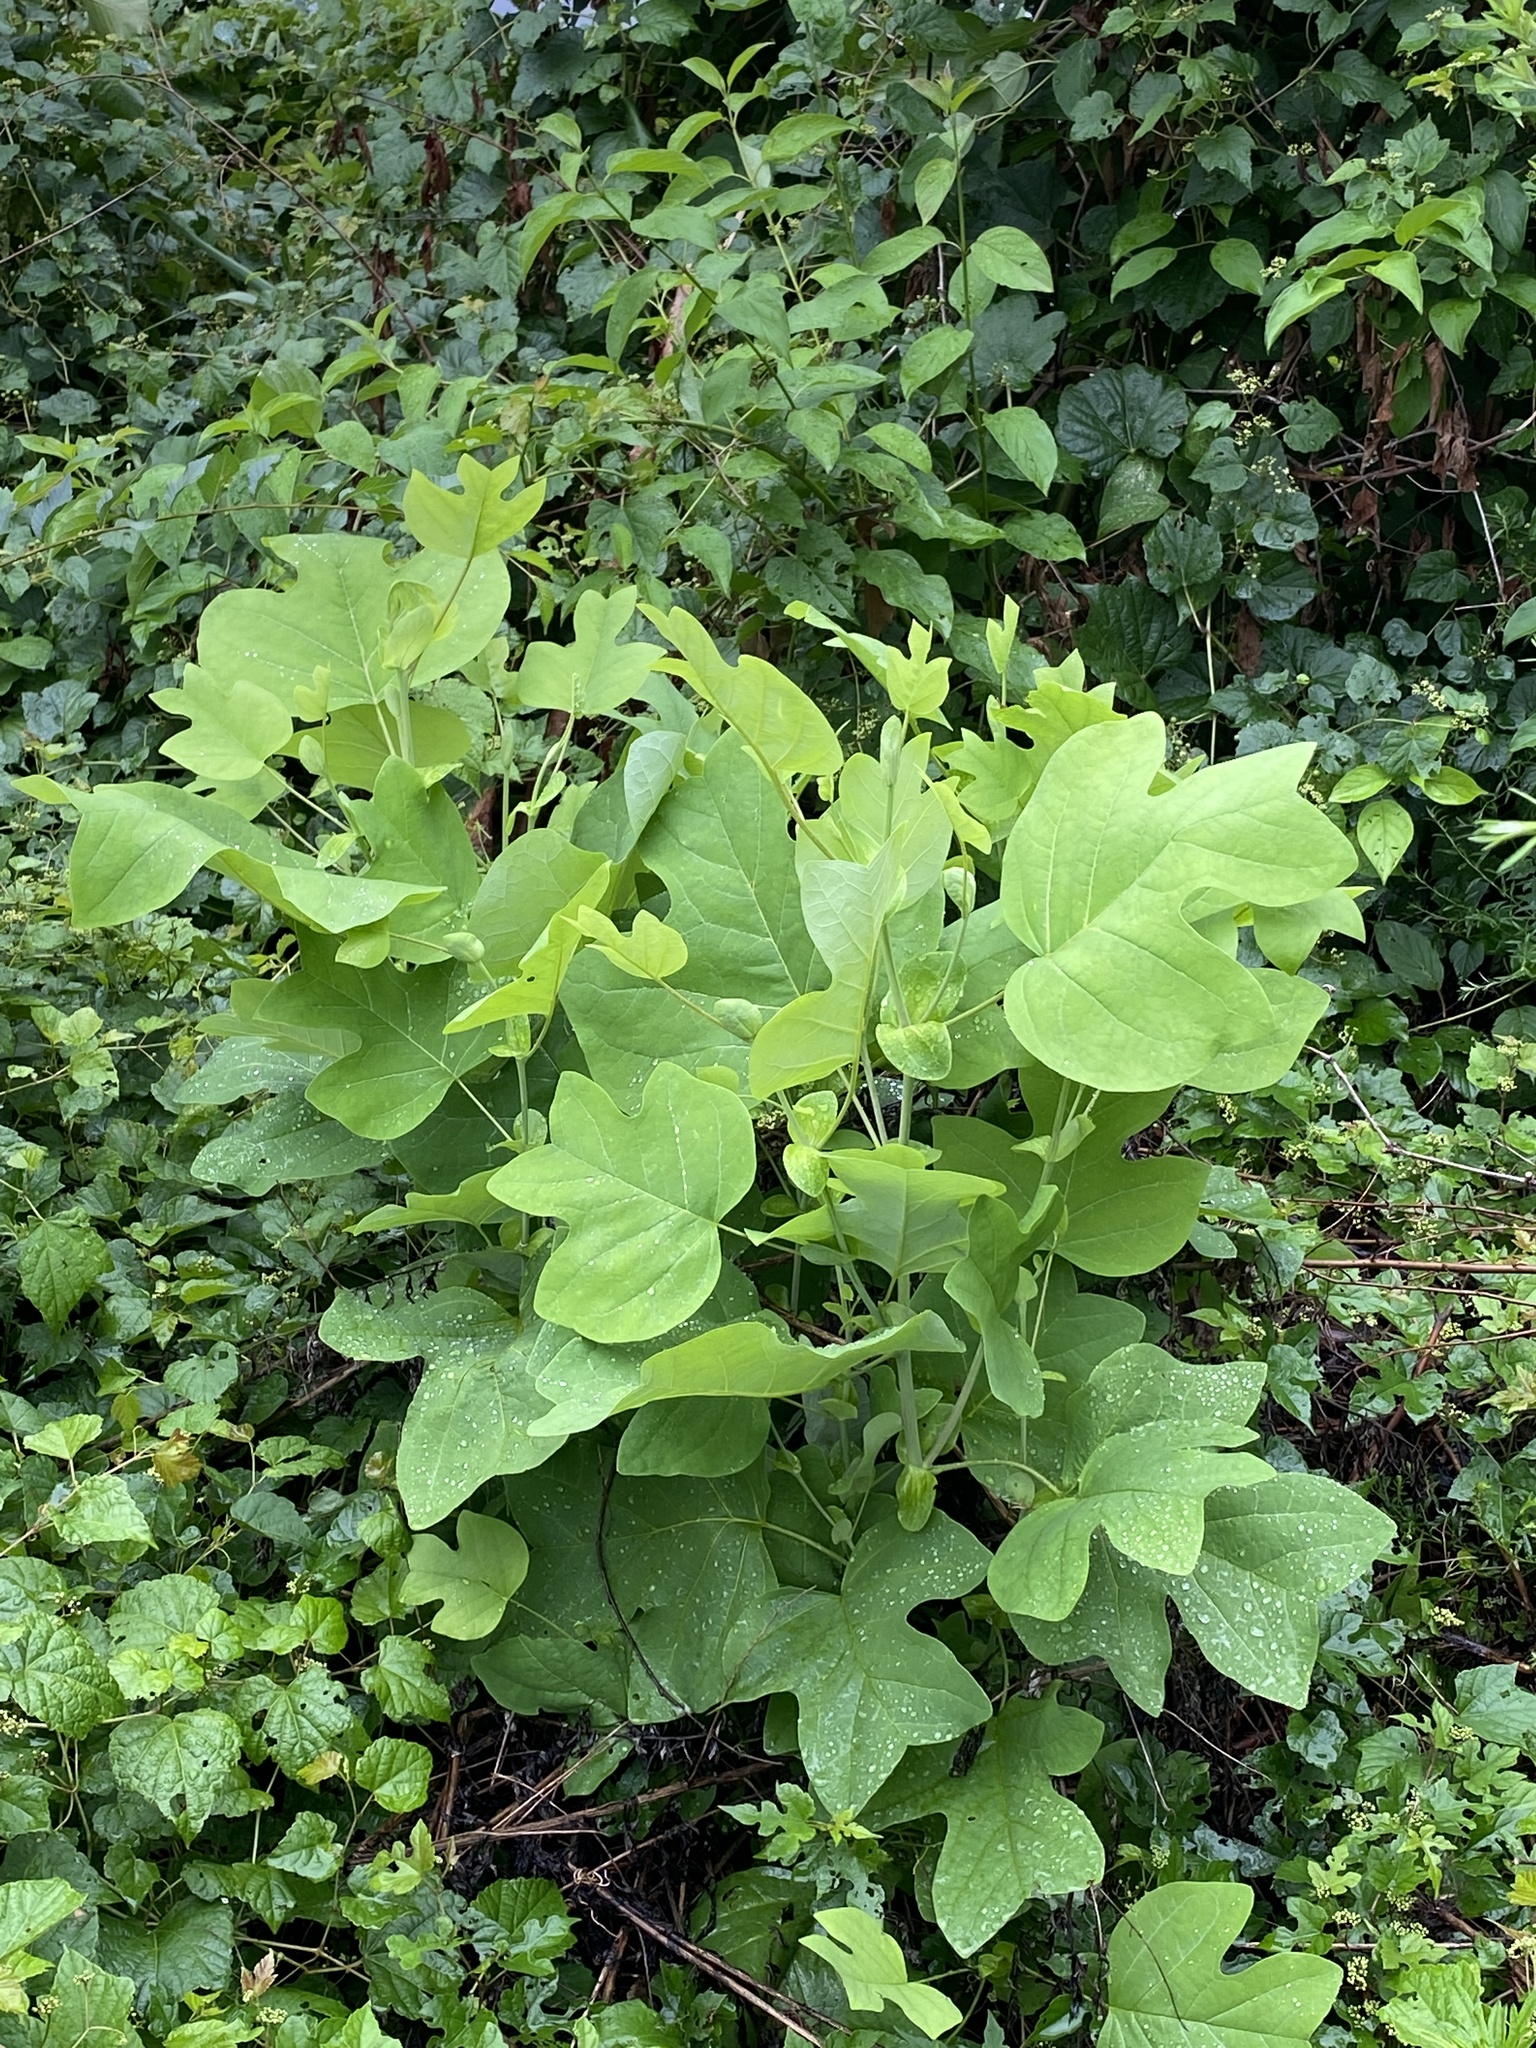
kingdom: Plantae
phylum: Tracheophyta
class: Magnoliopsida
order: Magnoliales
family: Magnoliaceae
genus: Liriodendron
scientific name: Liriodendron tulipifera
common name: Tulip tree
